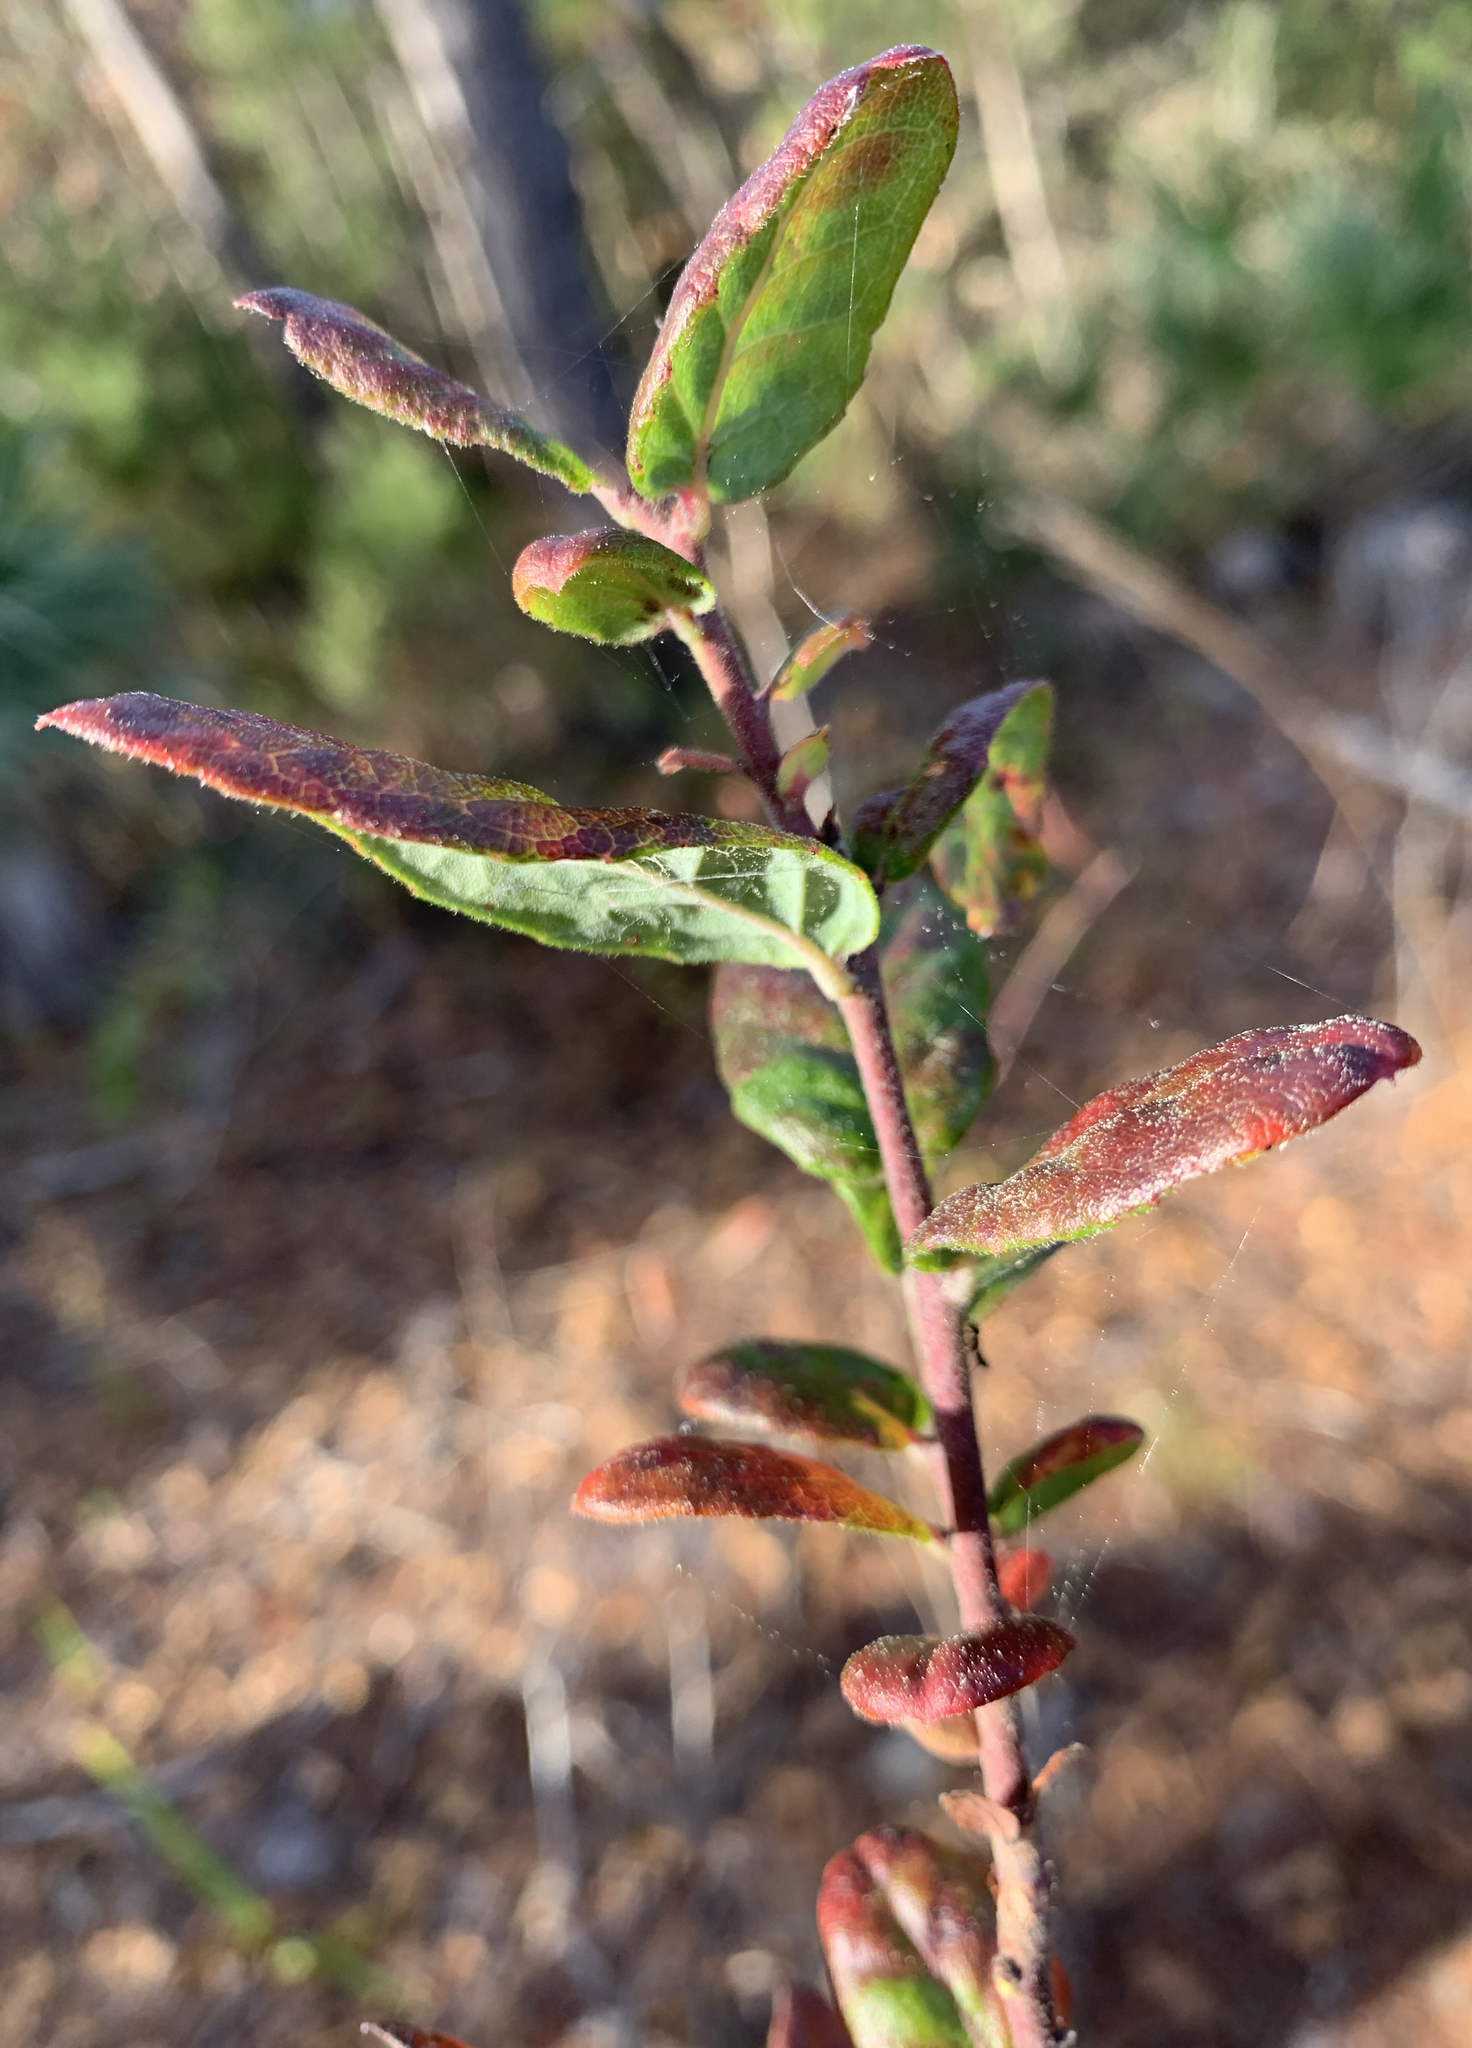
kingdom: Plantae
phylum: Tracheophyta
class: Magnoliopsida
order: Ericales
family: Ericaceae
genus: Vaccinium
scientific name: Vaccinium corymbosum
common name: Blueberry
